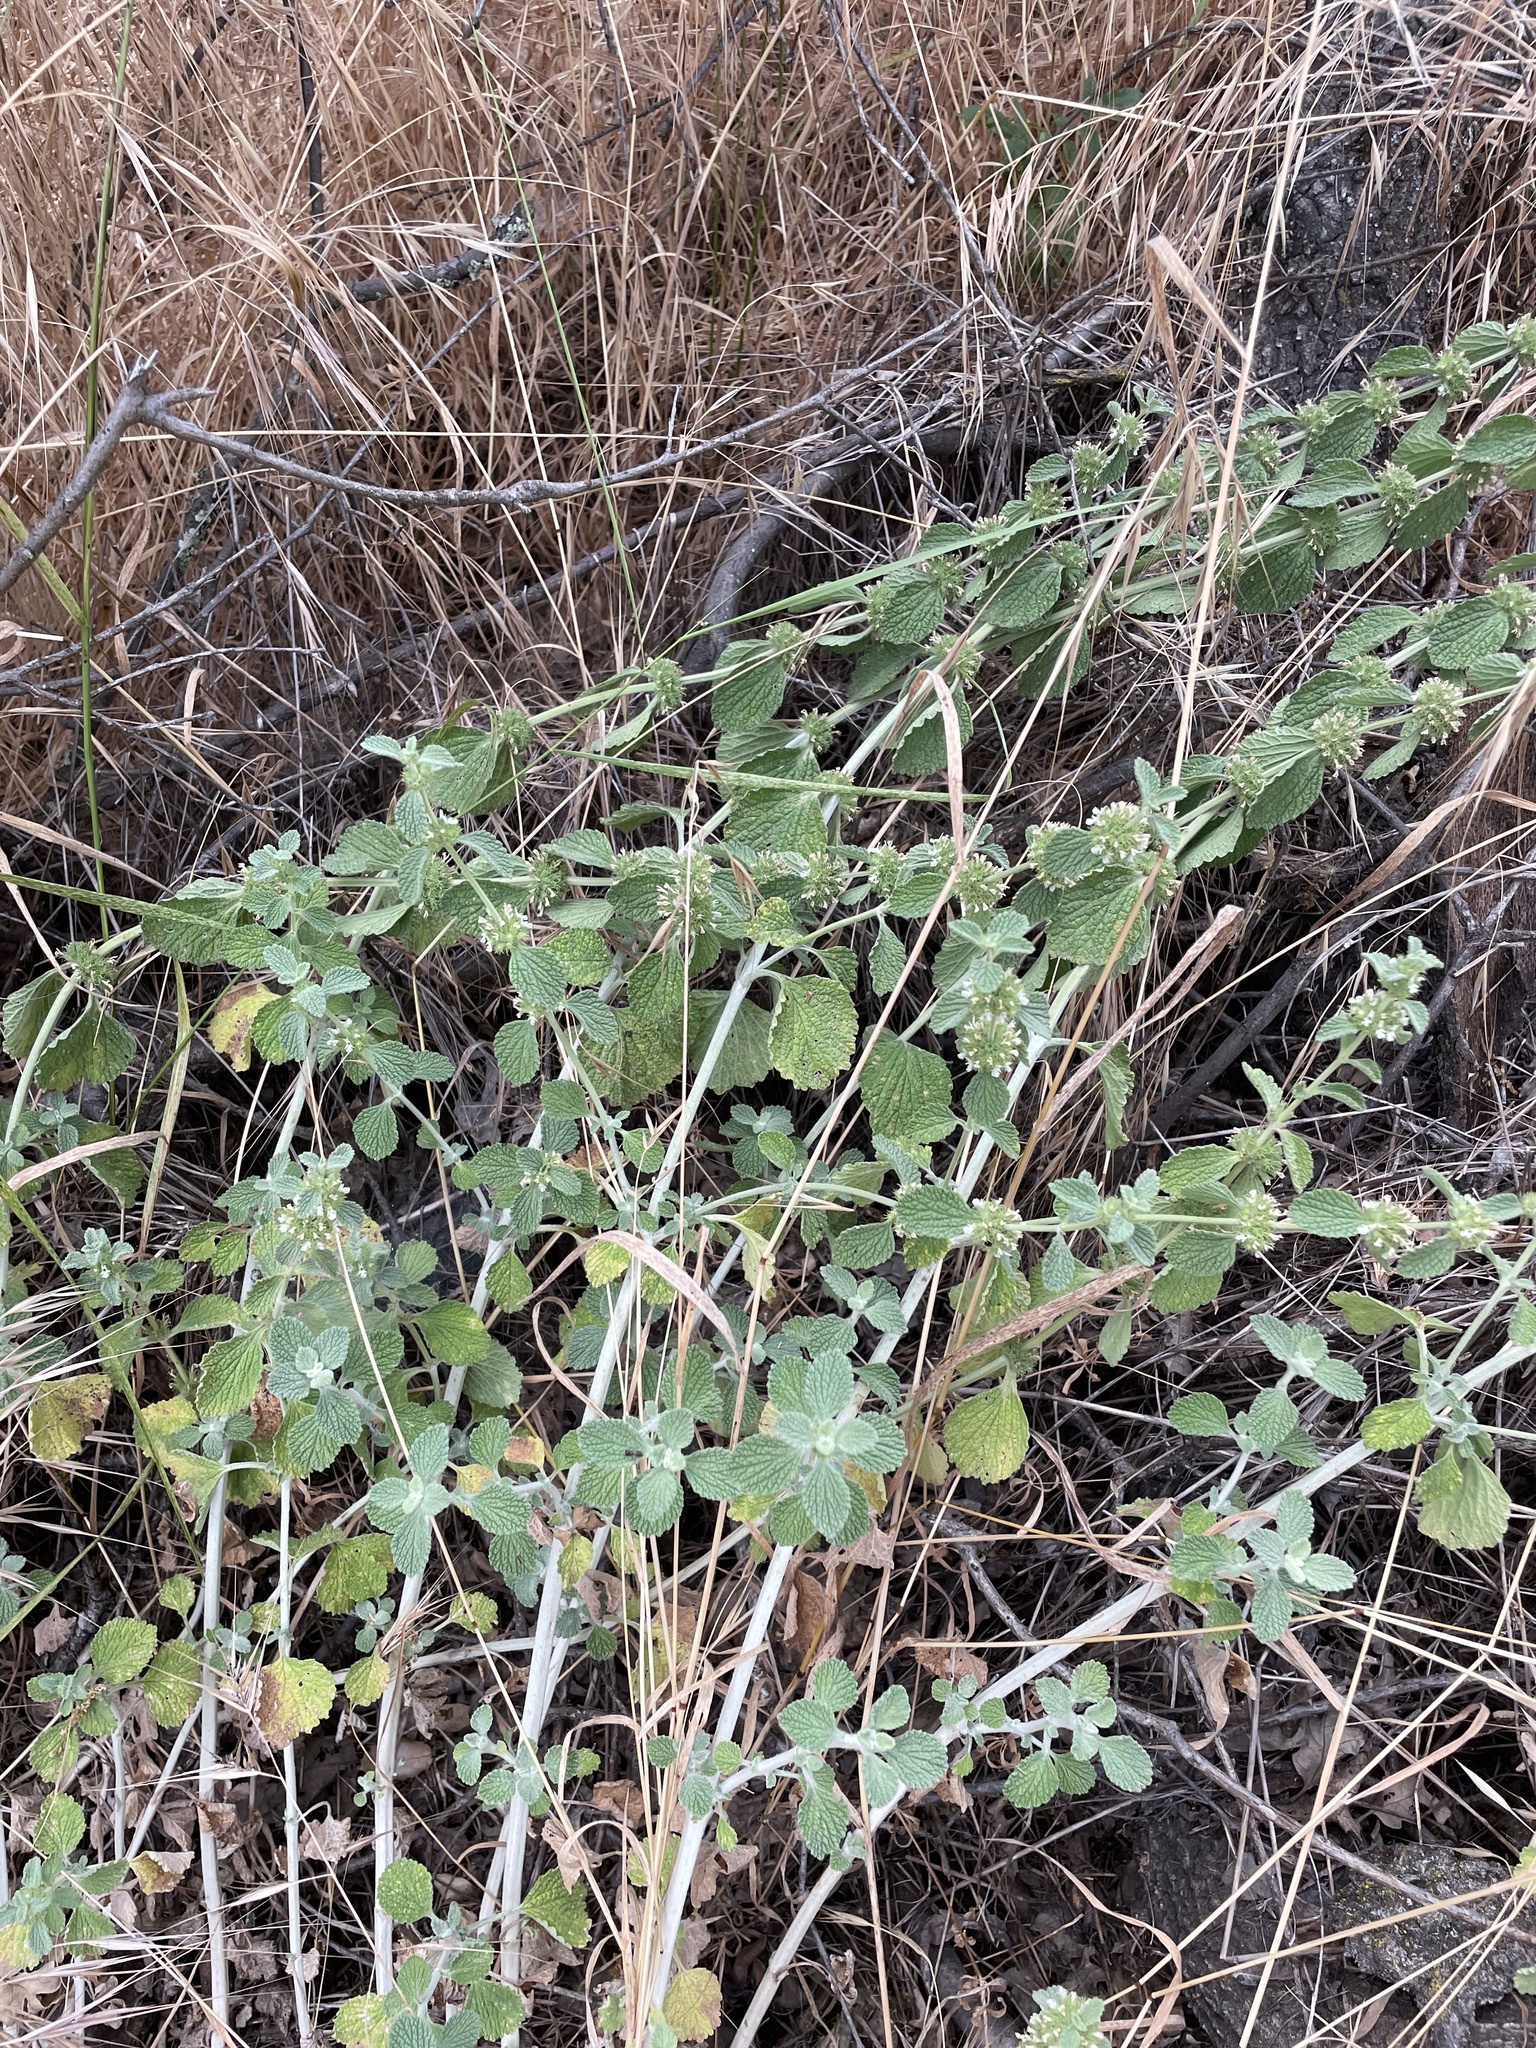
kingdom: Plantae
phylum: Tracheophyta
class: Magnoliopsida
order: Lamiales
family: Lamiaceae
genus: Marrubium
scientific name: Marrubium vulgare
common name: Horehound
